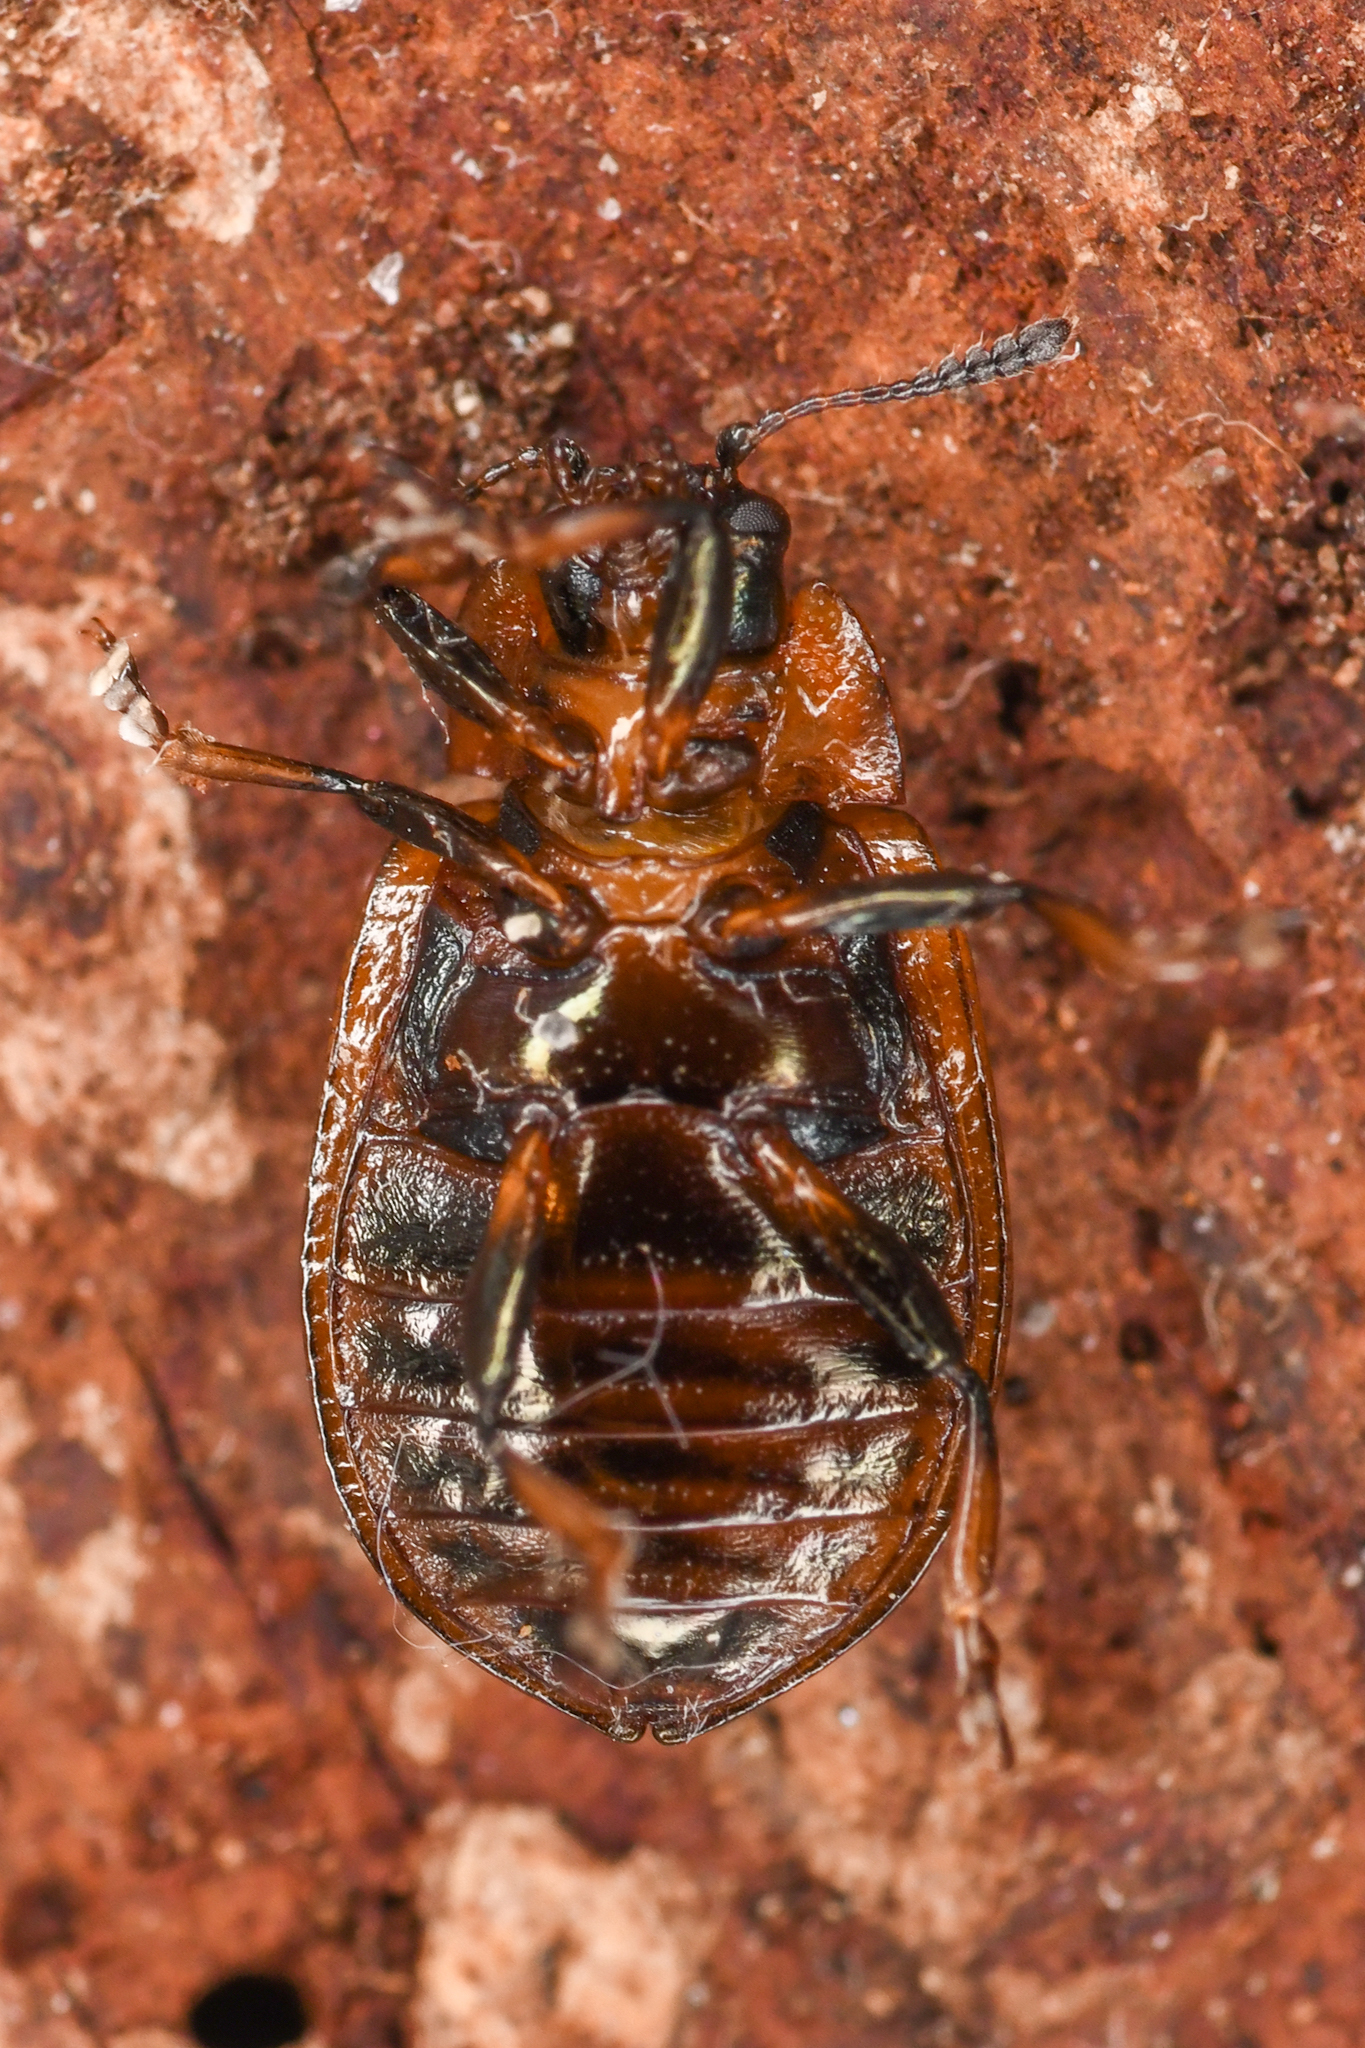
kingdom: Animalia
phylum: Arthropoda
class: Insecta
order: Coleoptera
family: Chrysomelidae
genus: Chrysomela
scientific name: Chrysomela schaefferi
